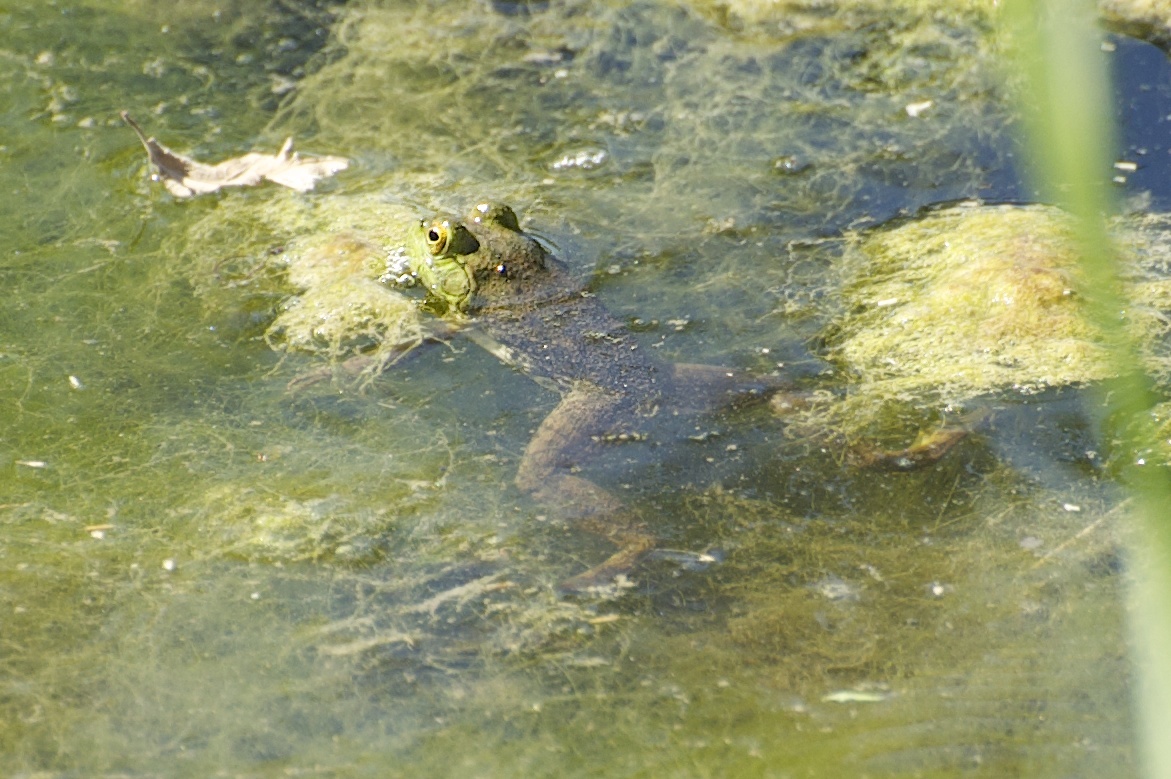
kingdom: Animalia
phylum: Chordata
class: Amphibia
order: Anura
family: Ranidae
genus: Lithobates
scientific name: Lithobates catesbeianus
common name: American bullfrog
